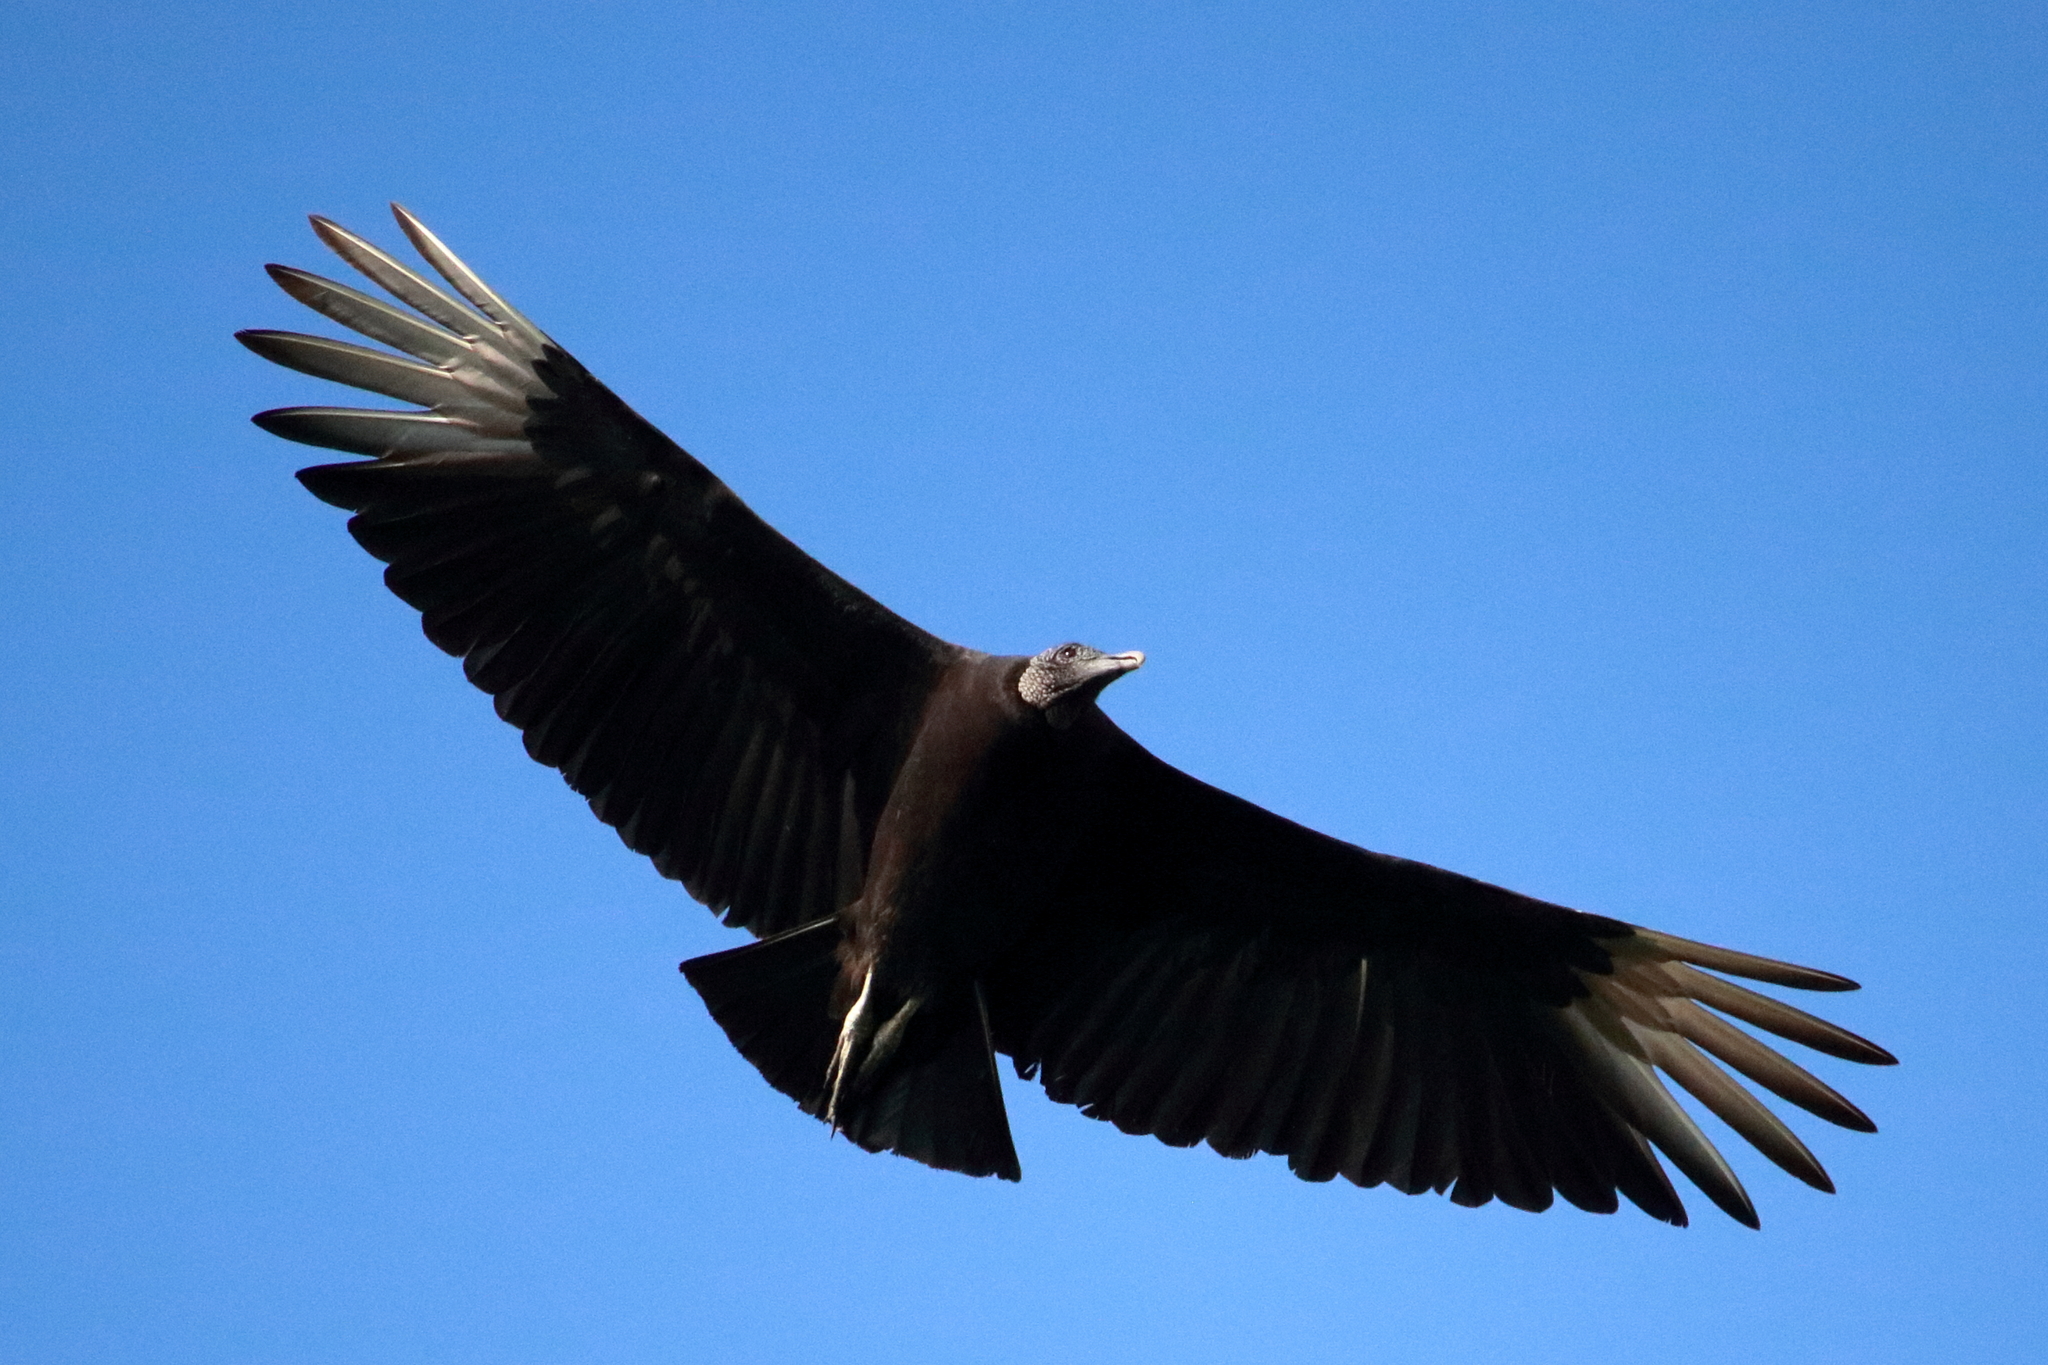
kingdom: Animalia
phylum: Chordata
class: Aves
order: Accipitriformes
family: Cathartidae
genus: Coragyps
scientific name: Coragyps atratus
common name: Black vulture
